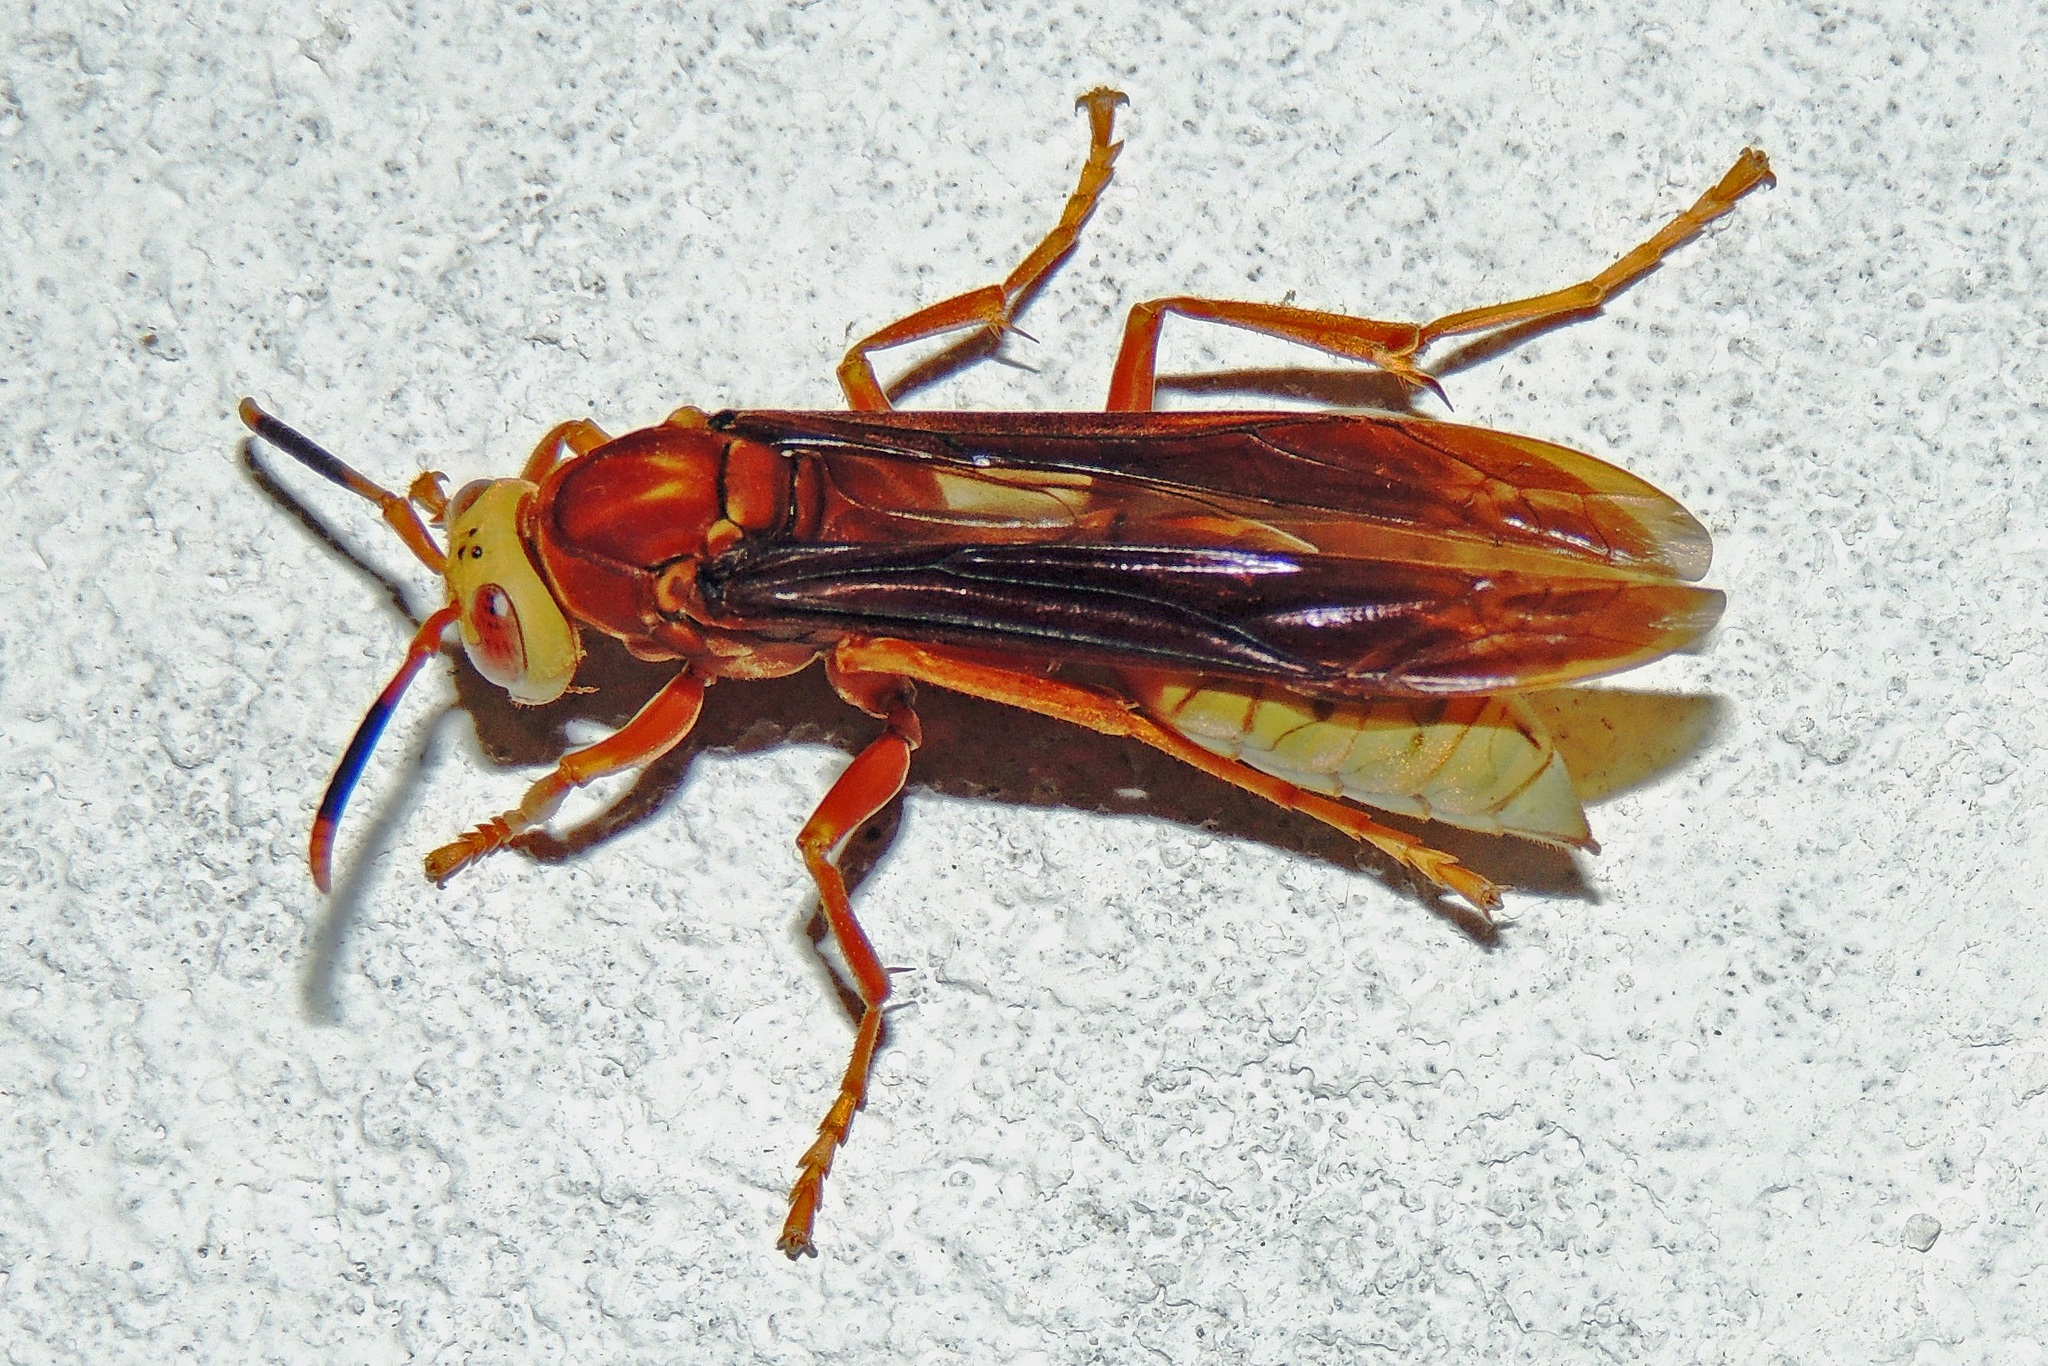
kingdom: Animalia
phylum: Arthropoda
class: Insecta
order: Hymenoptera
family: Eumenidae
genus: Polistes
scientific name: Polistes cavapyta
